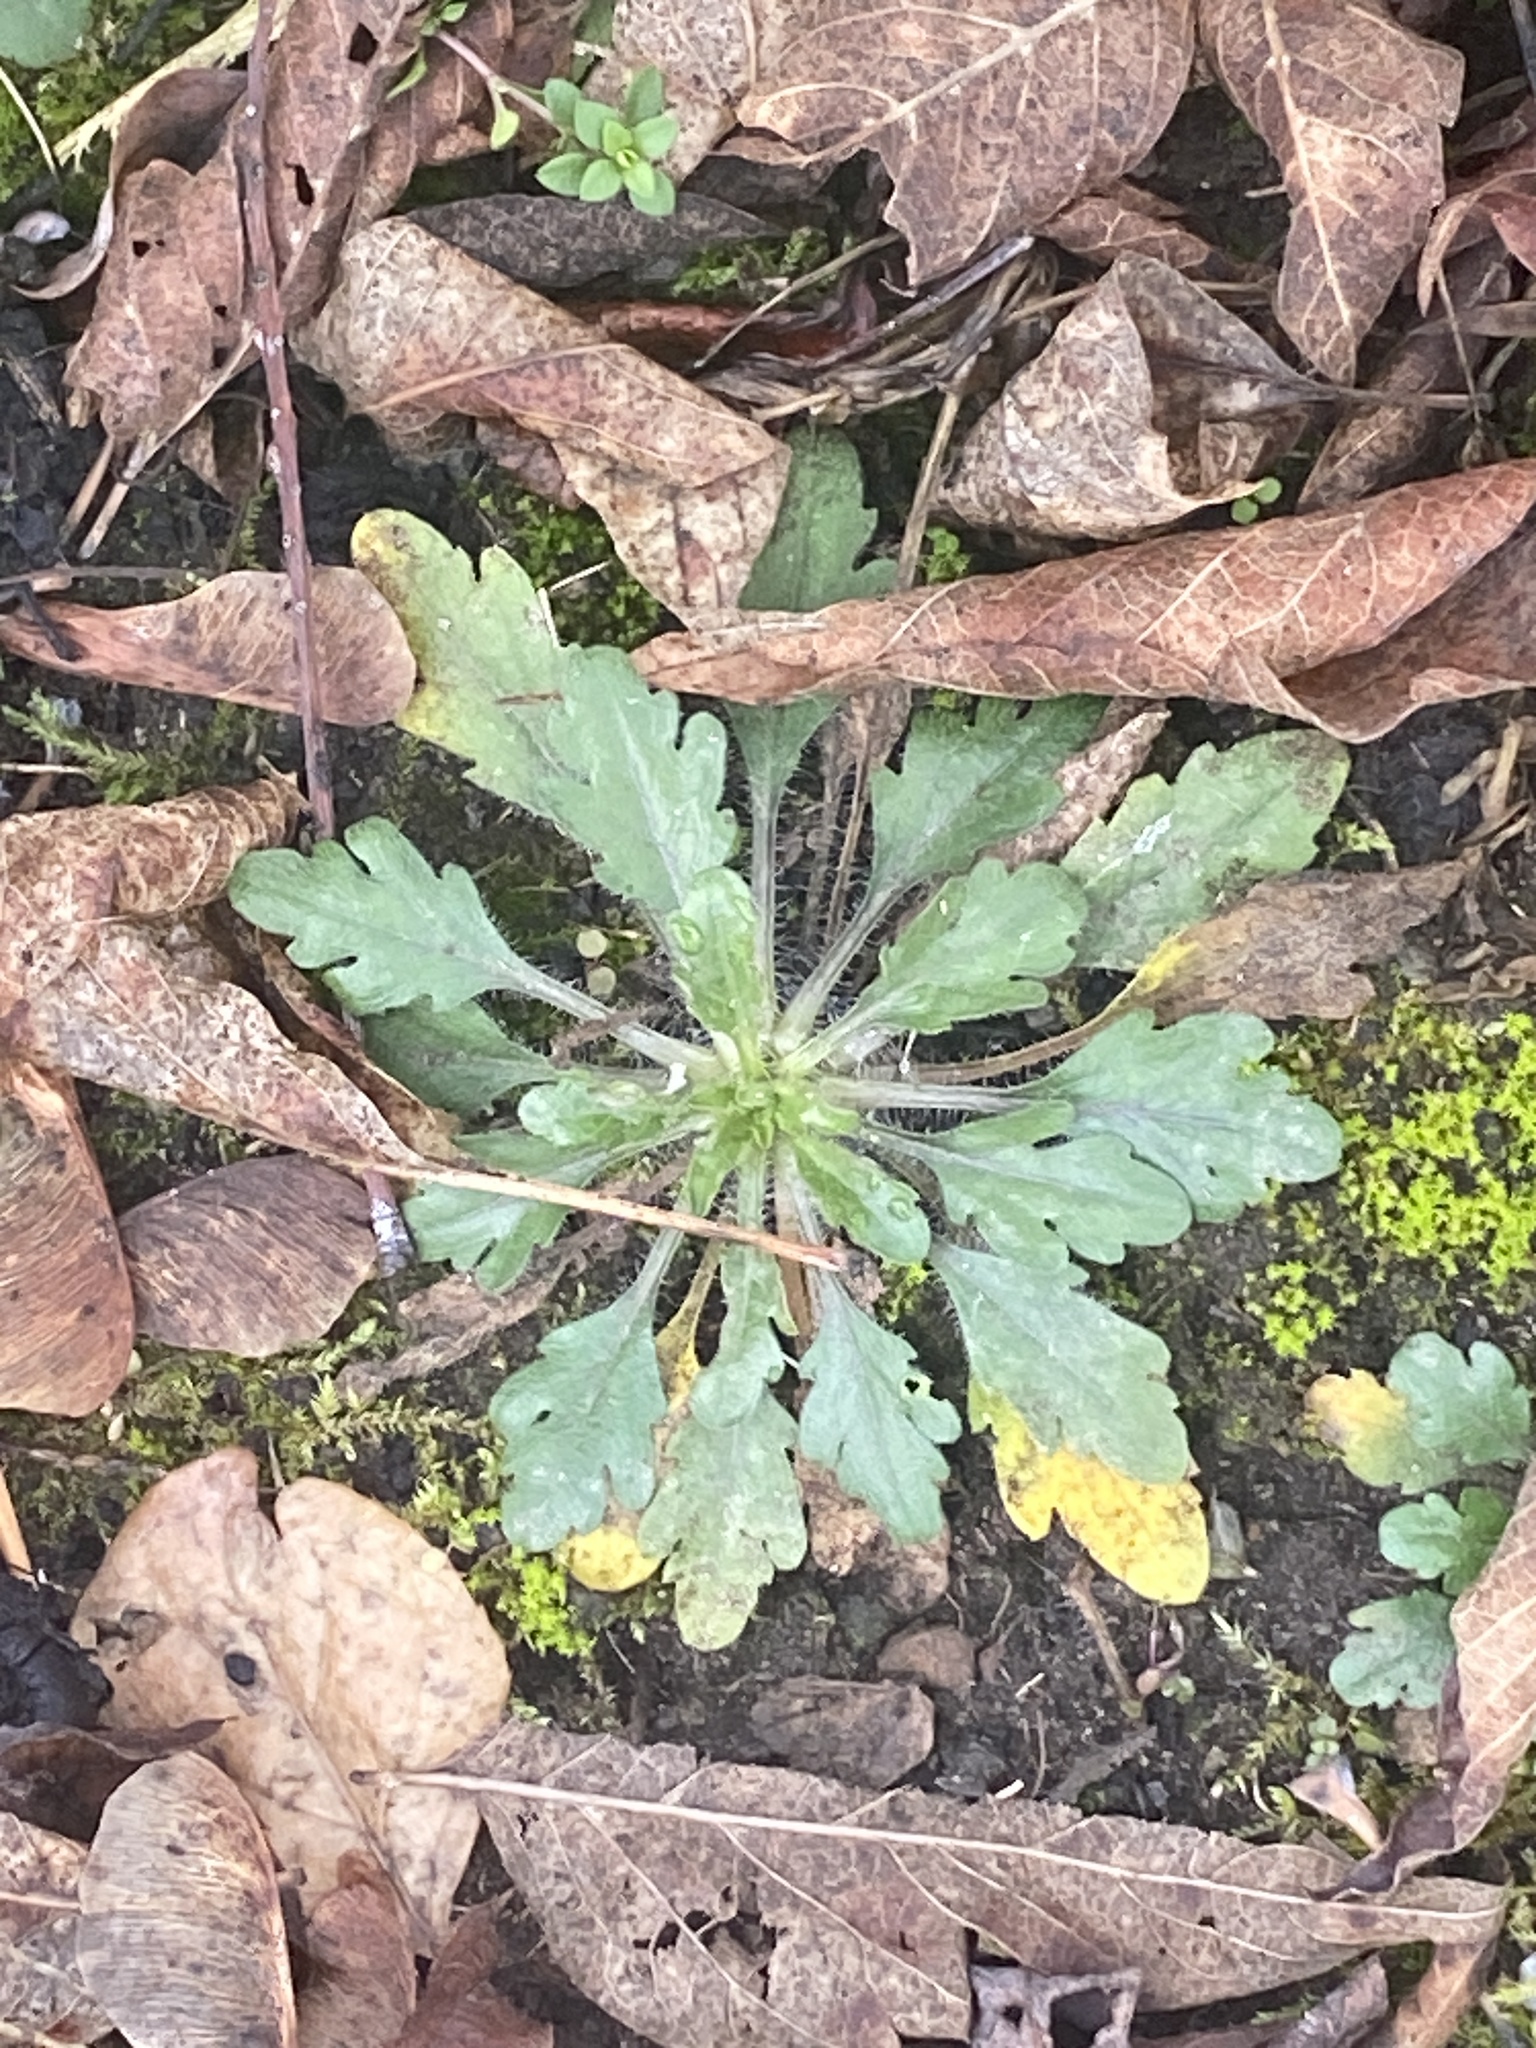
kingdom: Plantae
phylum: Tracheophyta
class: Magnoliopsida
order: Asterales
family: Asteraceae
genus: Erigeron
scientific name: Erigeron canadensis
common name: Canadian fleabane
